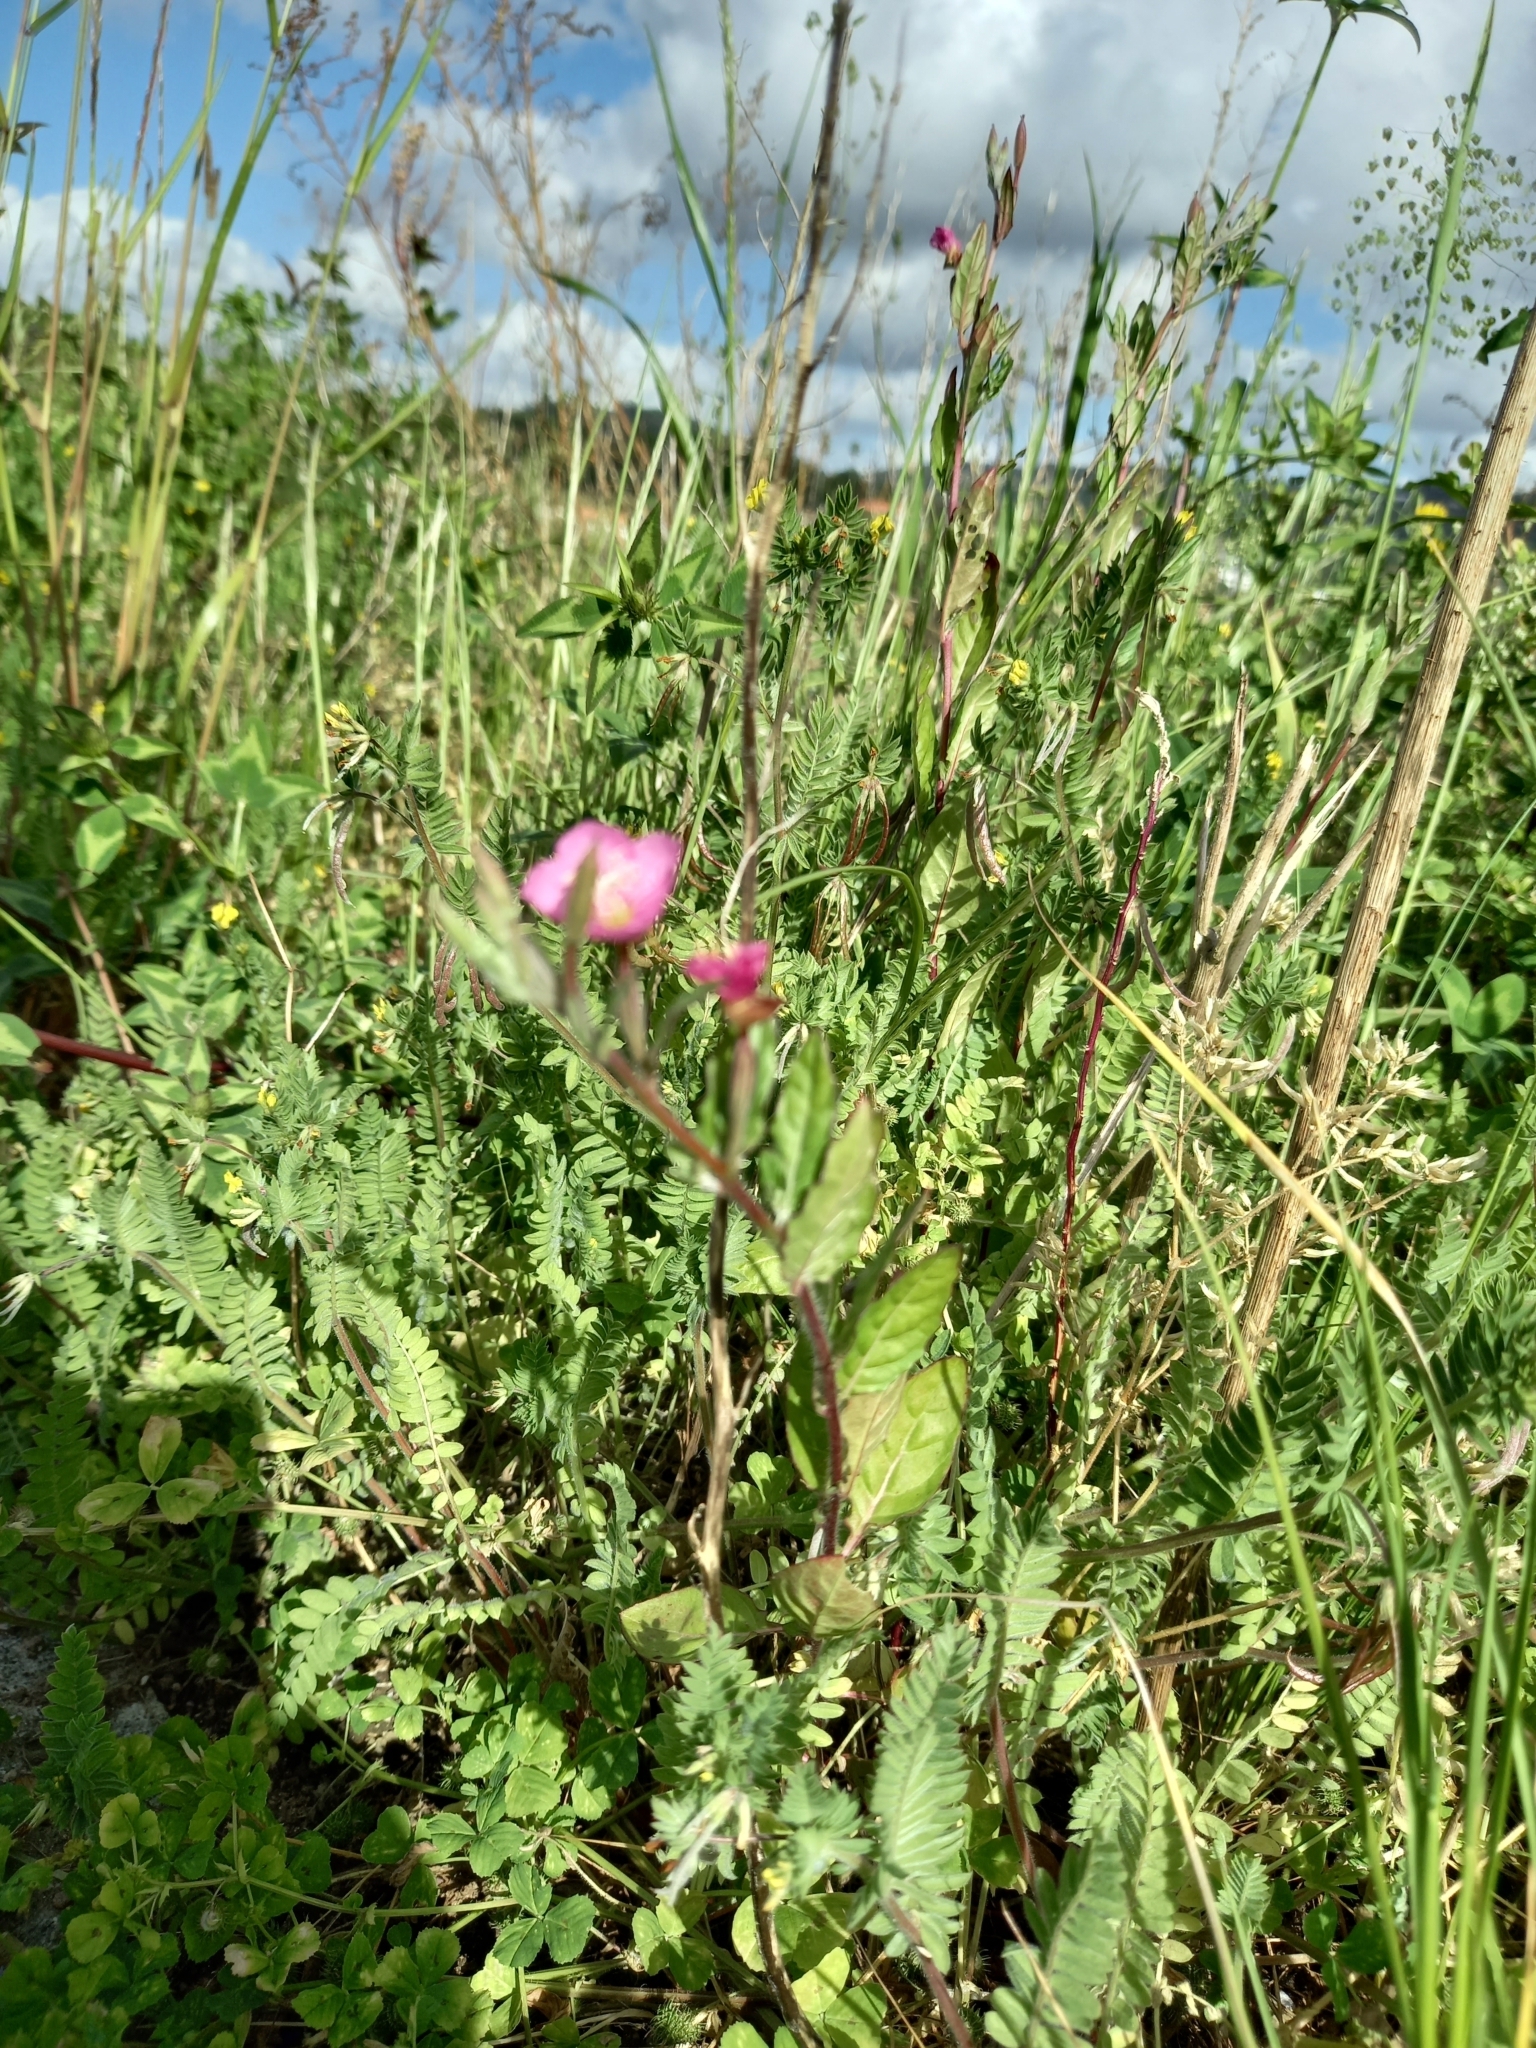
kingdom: Plantae
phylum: Tracheophyta
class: Magnoliopsida
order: Myrtales
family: Onagraceae
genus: Oenothera
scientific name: Oenothera rosea
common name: Rosy evening-primrose
